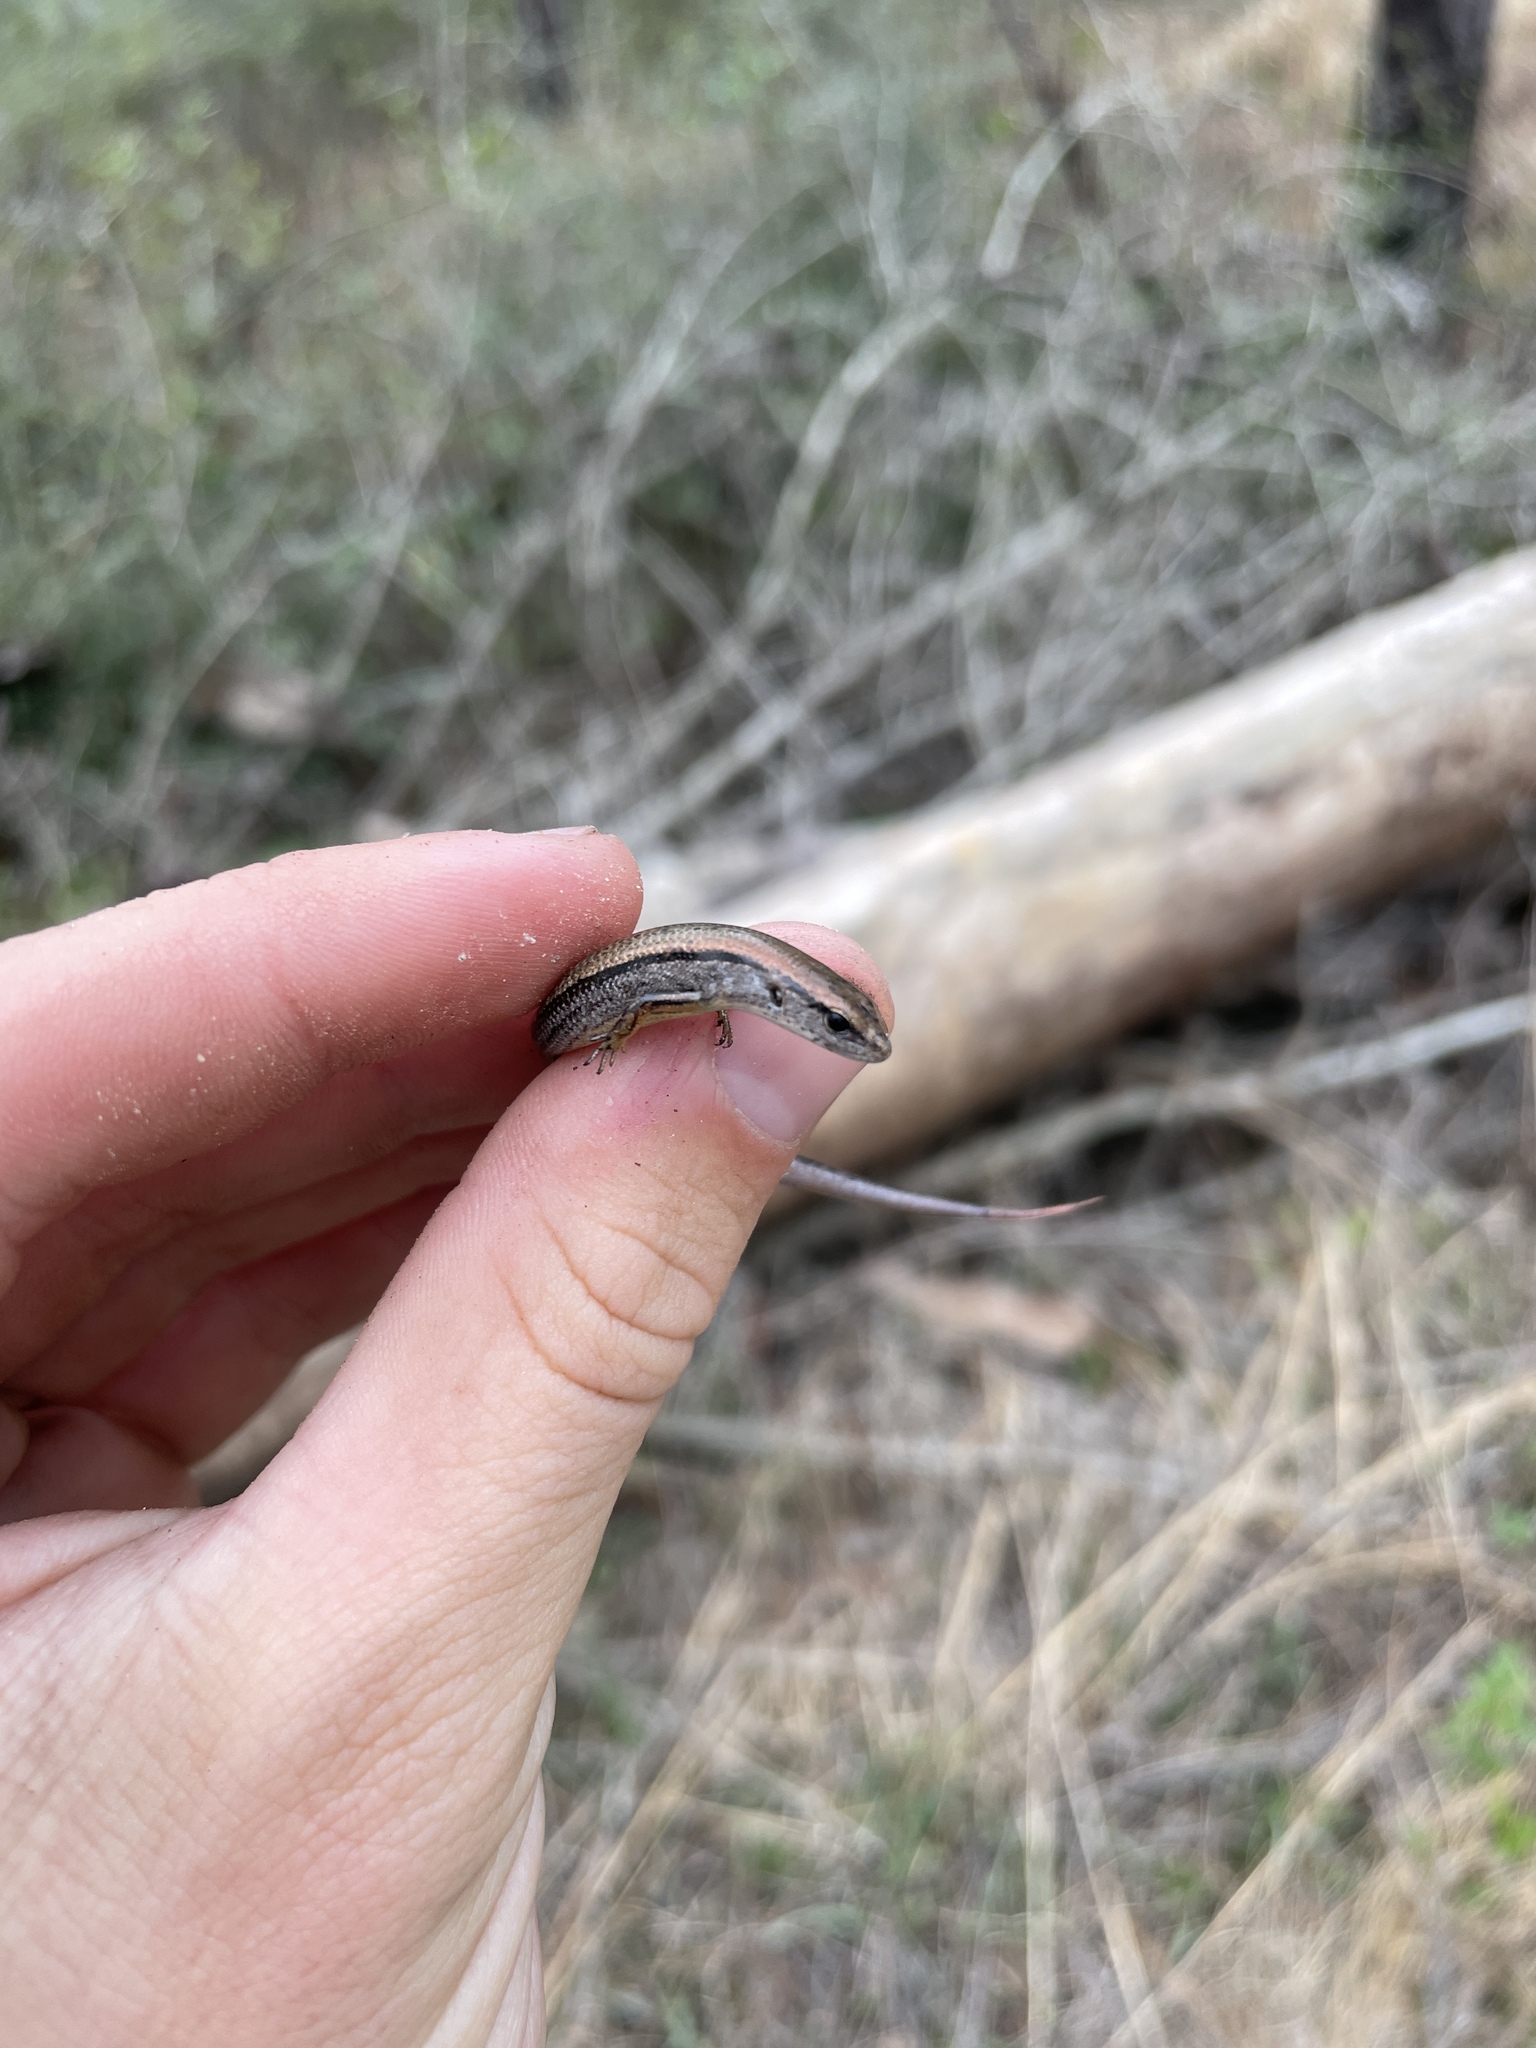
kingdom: Animalia
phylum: Chordata
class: Squamata
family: Scincidae
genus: Scincella
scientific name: Scincella lateralis
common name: Ground skink
